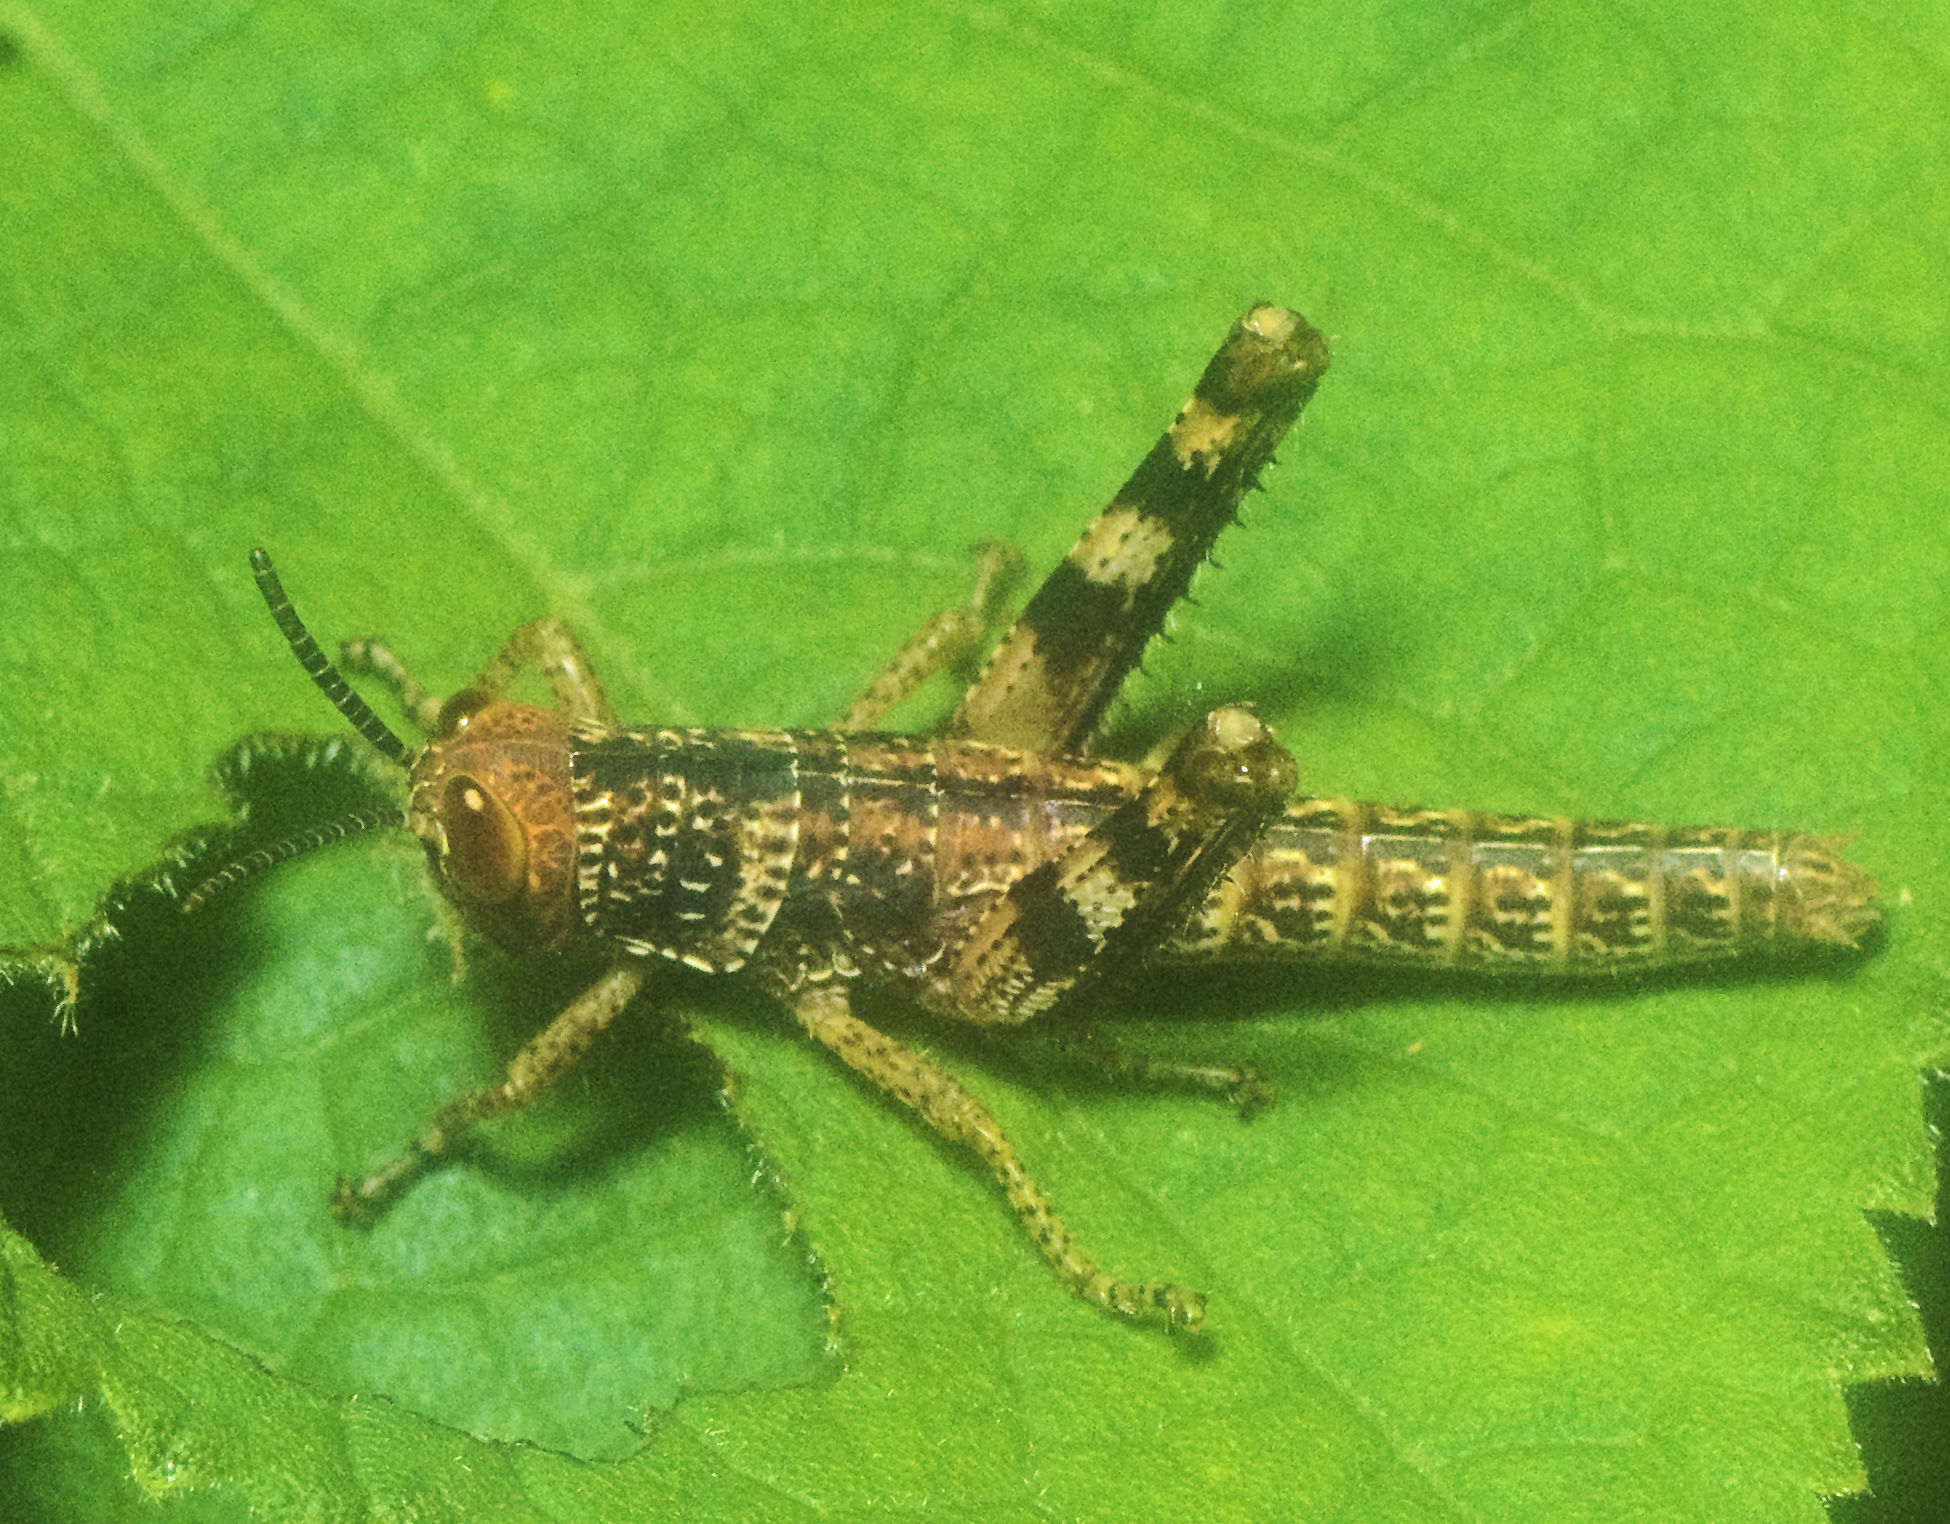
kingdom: Animalia
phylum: Arthropoda
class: Insecta
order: Orthoptera
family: Acrididae
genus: Valanga
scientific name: Valanga irregularis
